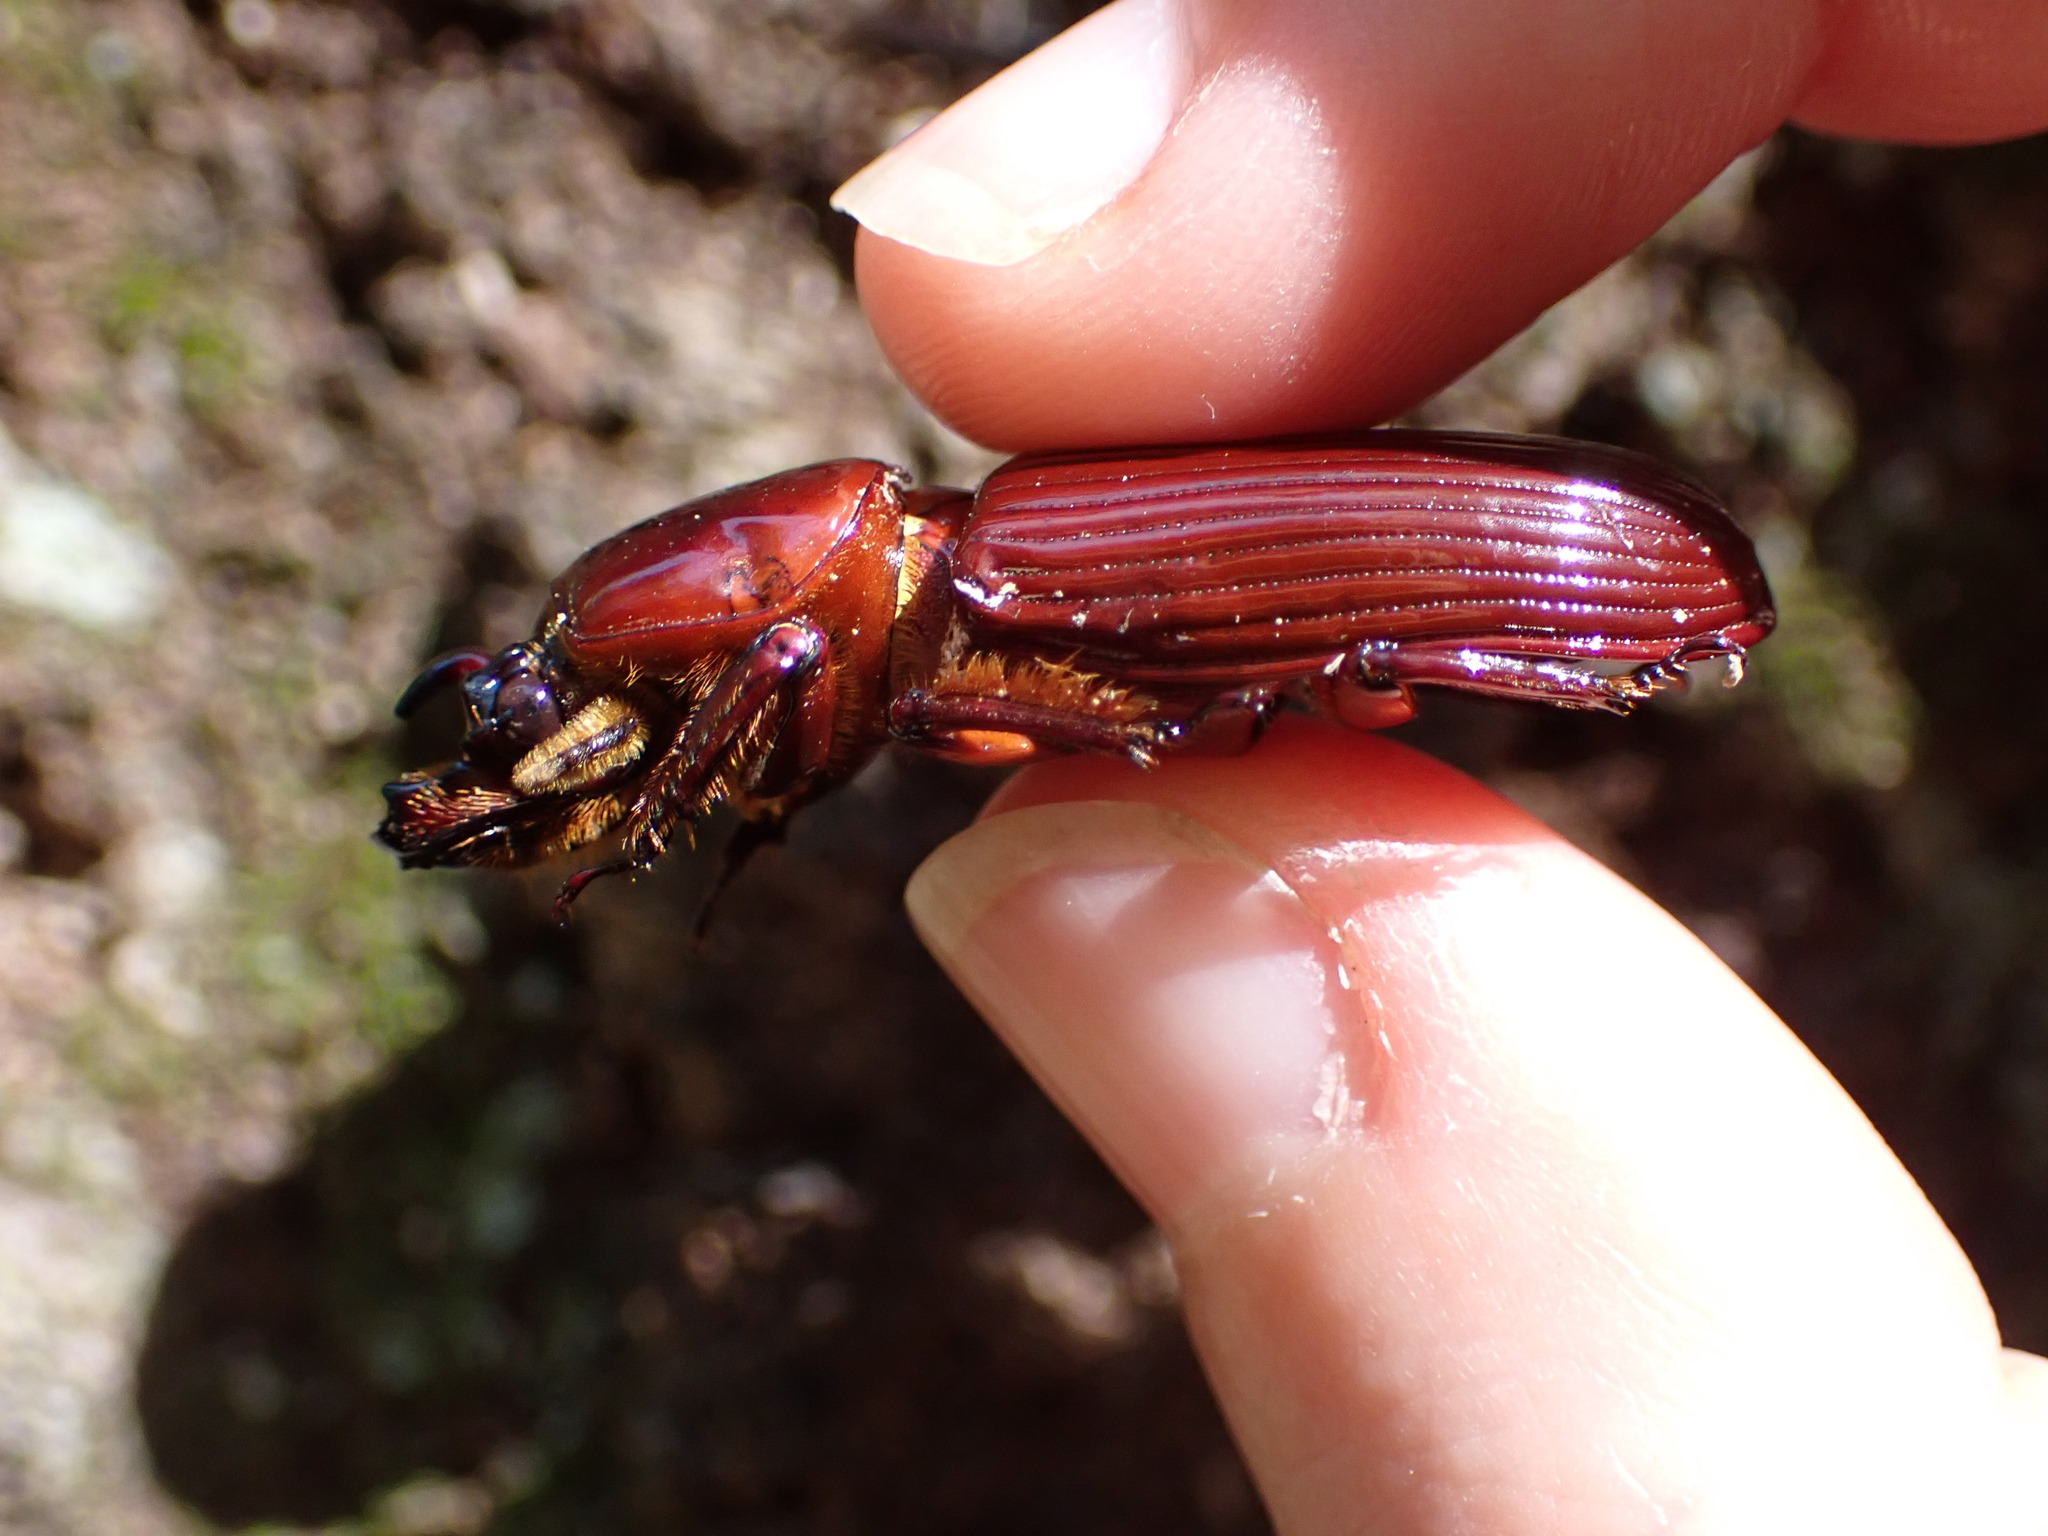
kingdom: Animalia
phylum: Arthropoda
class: Insecta
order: Coleoptera
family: Passalidae
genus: Odontotaenius
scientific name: Odontotaenius disjunctus
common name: Patent leather beetle
